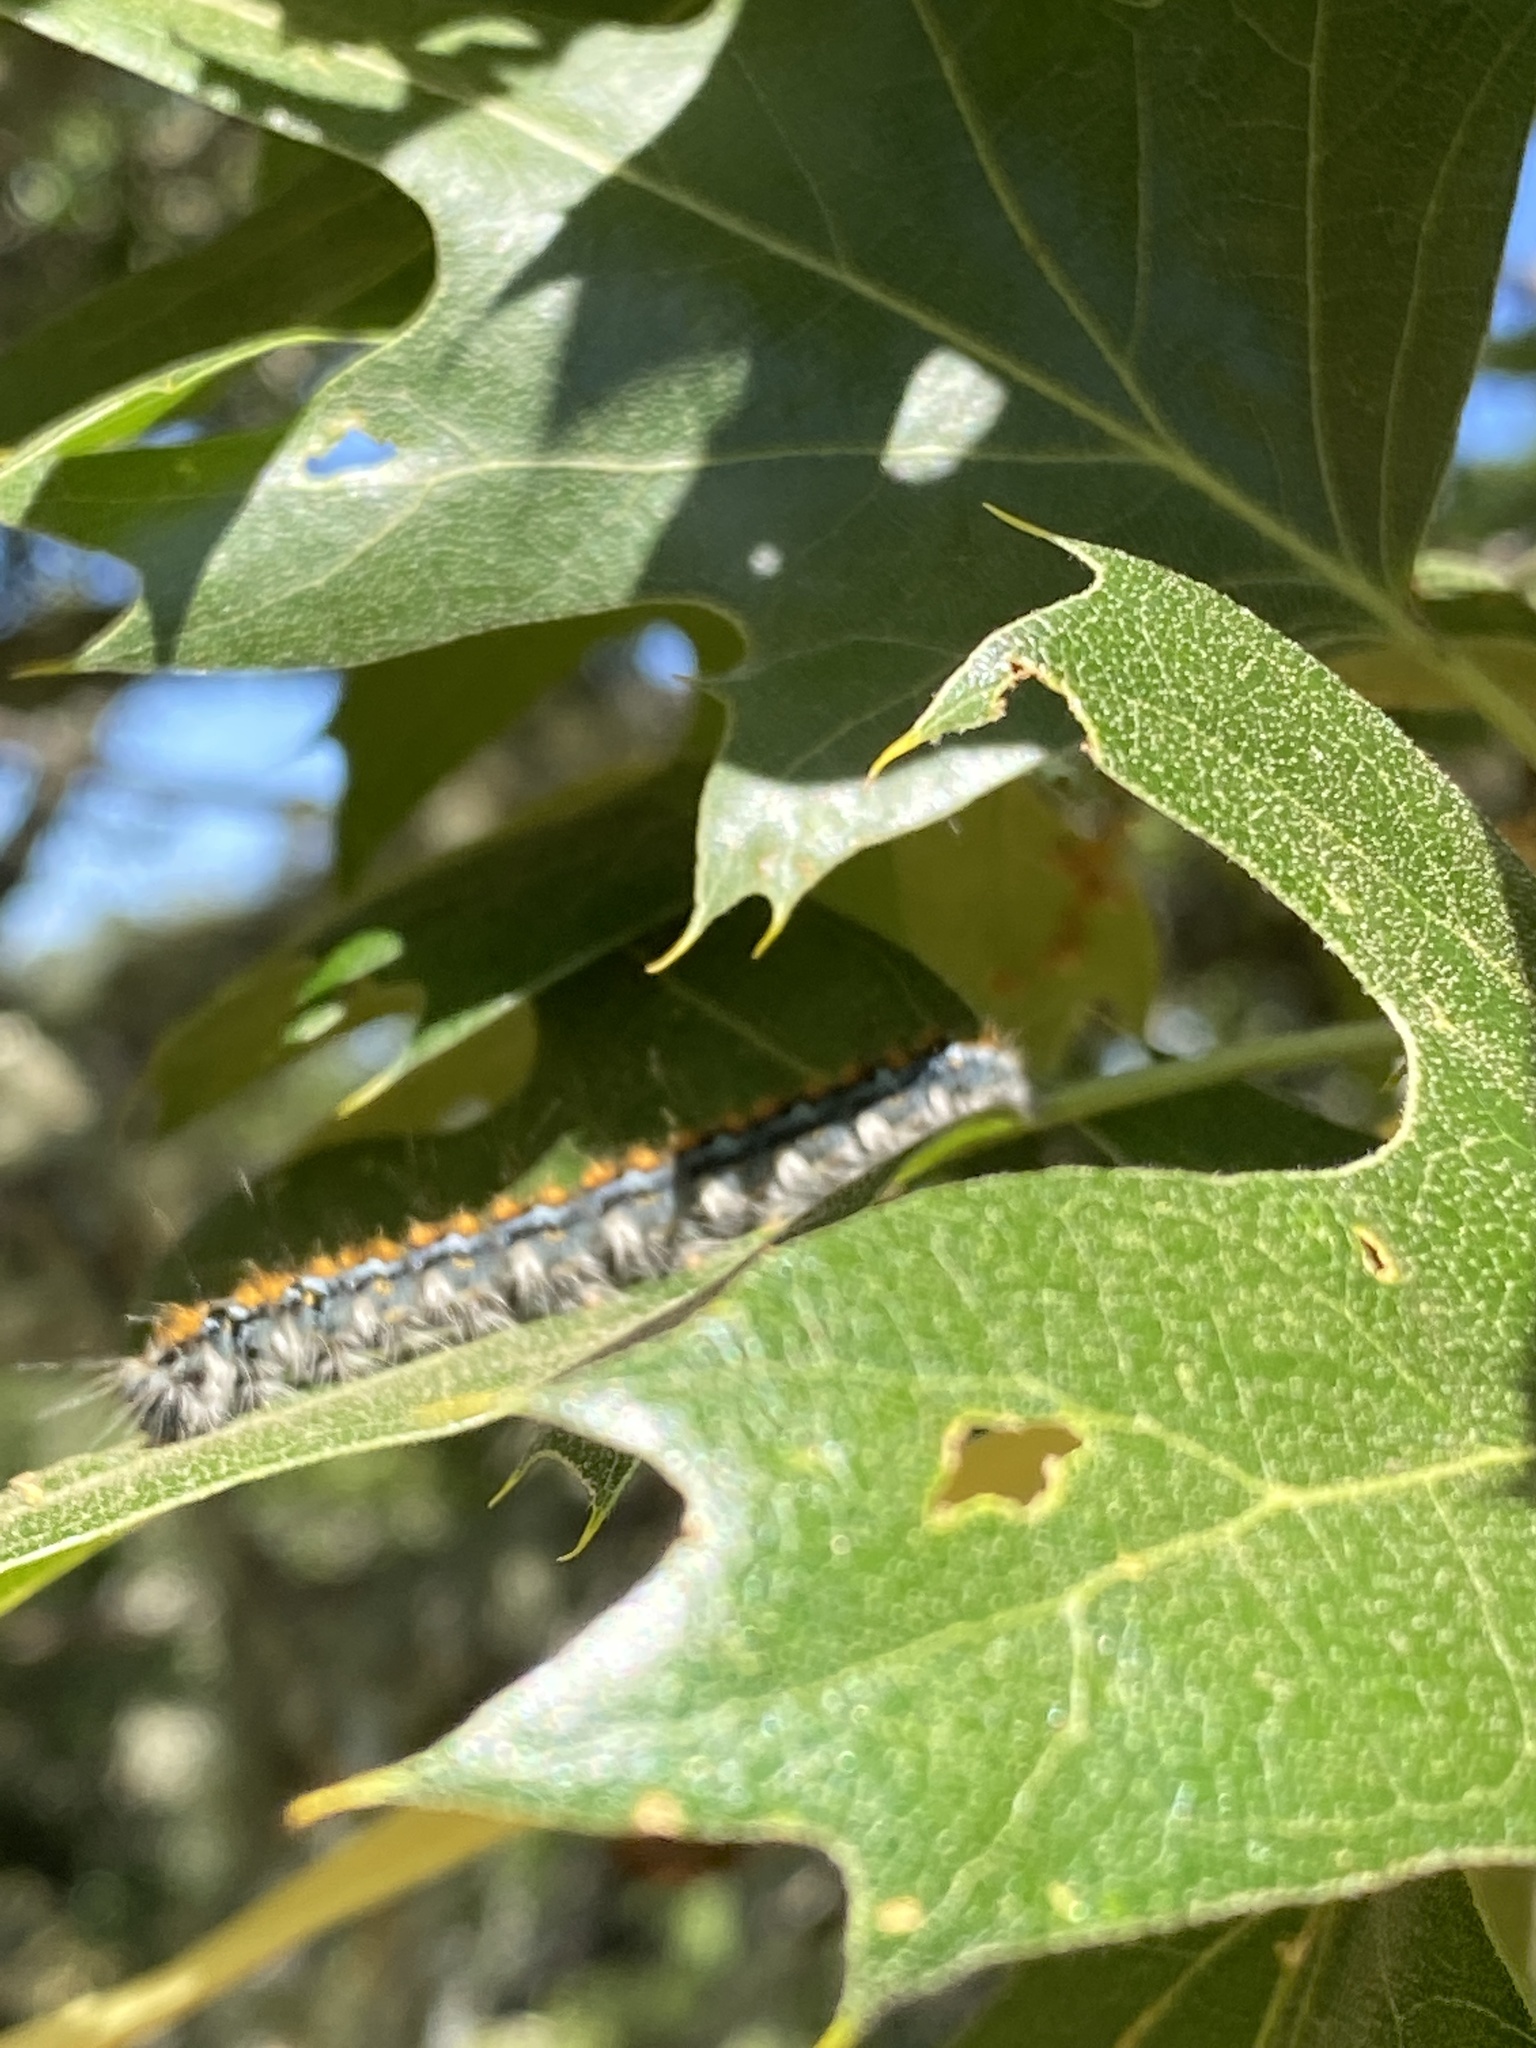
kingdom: Animalia
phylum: Arthropoda
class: Insecta
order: Lepidoptera
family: Lasiocampidae
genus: Malacosoma
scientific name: Malacosoma constricta
